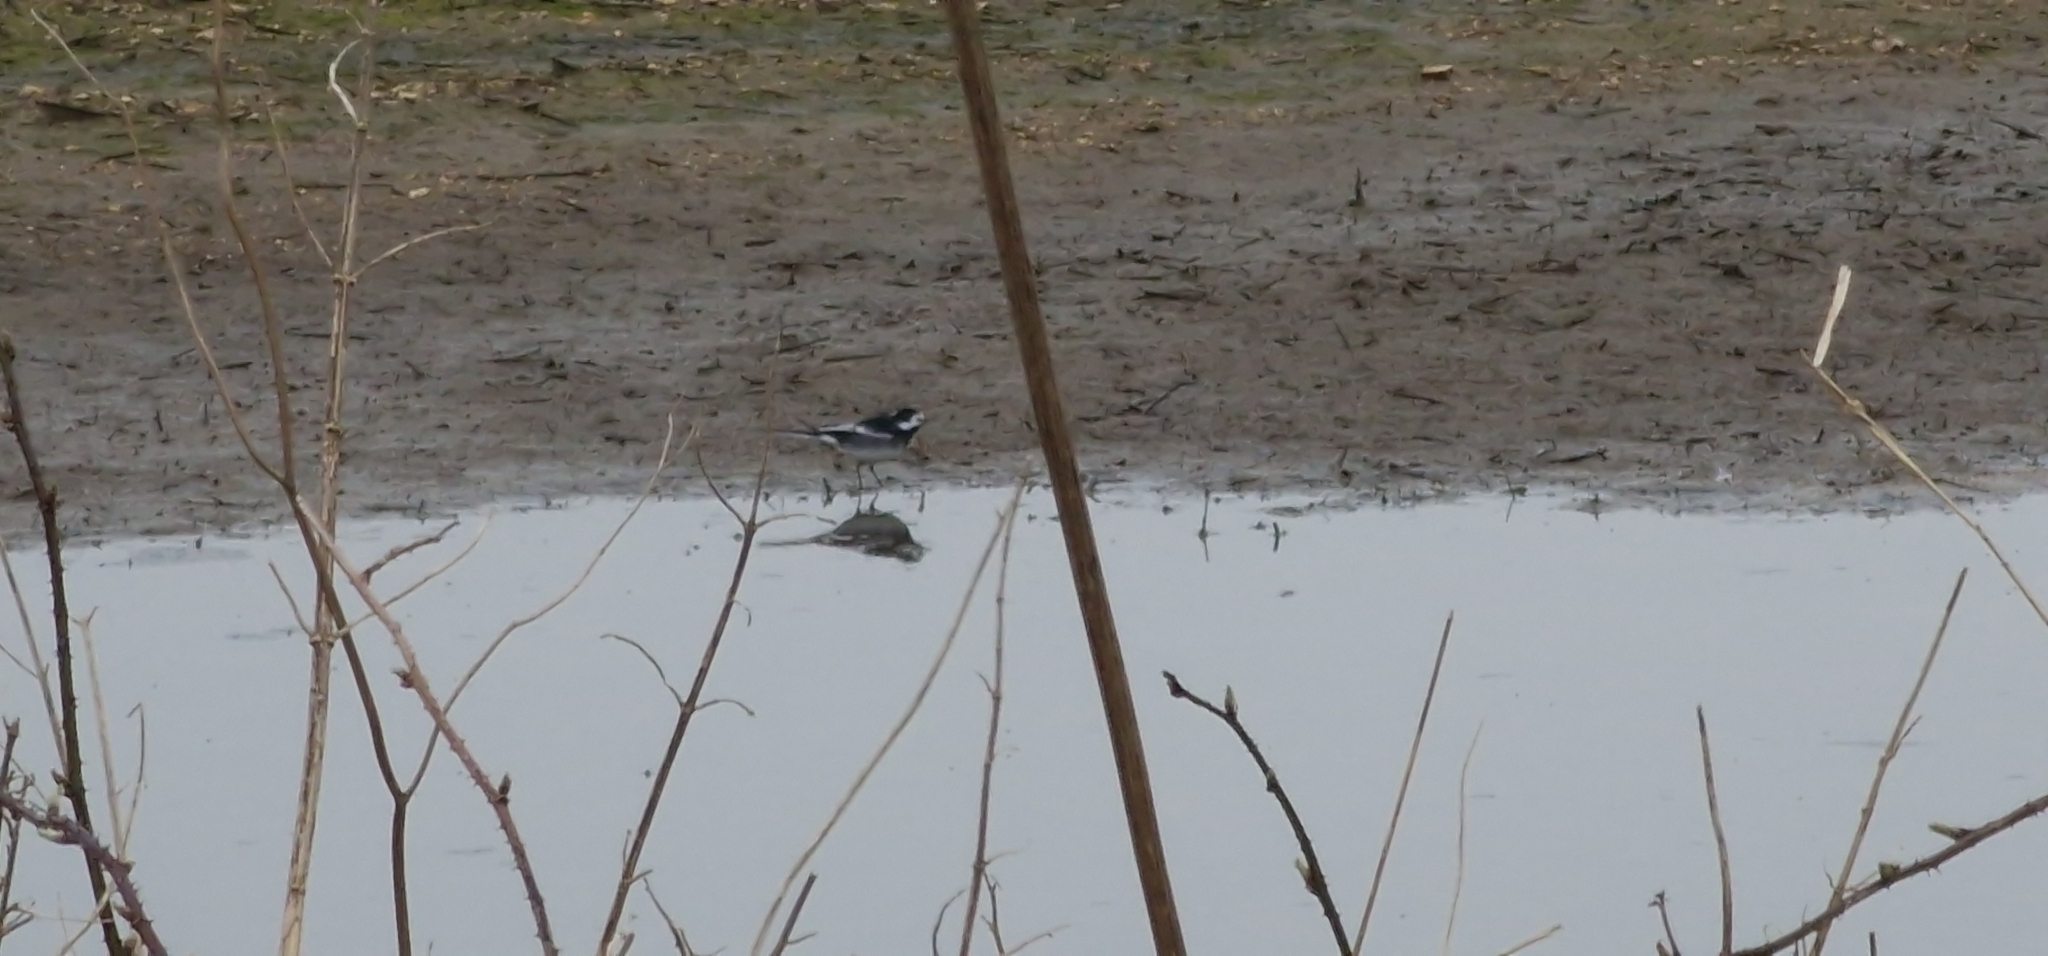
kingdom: Animalia
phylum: Chordata
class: Aves
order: Passeriformes
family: Motacillidae
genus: Motacilla
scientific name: Motacilla alba
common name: White wagtail
